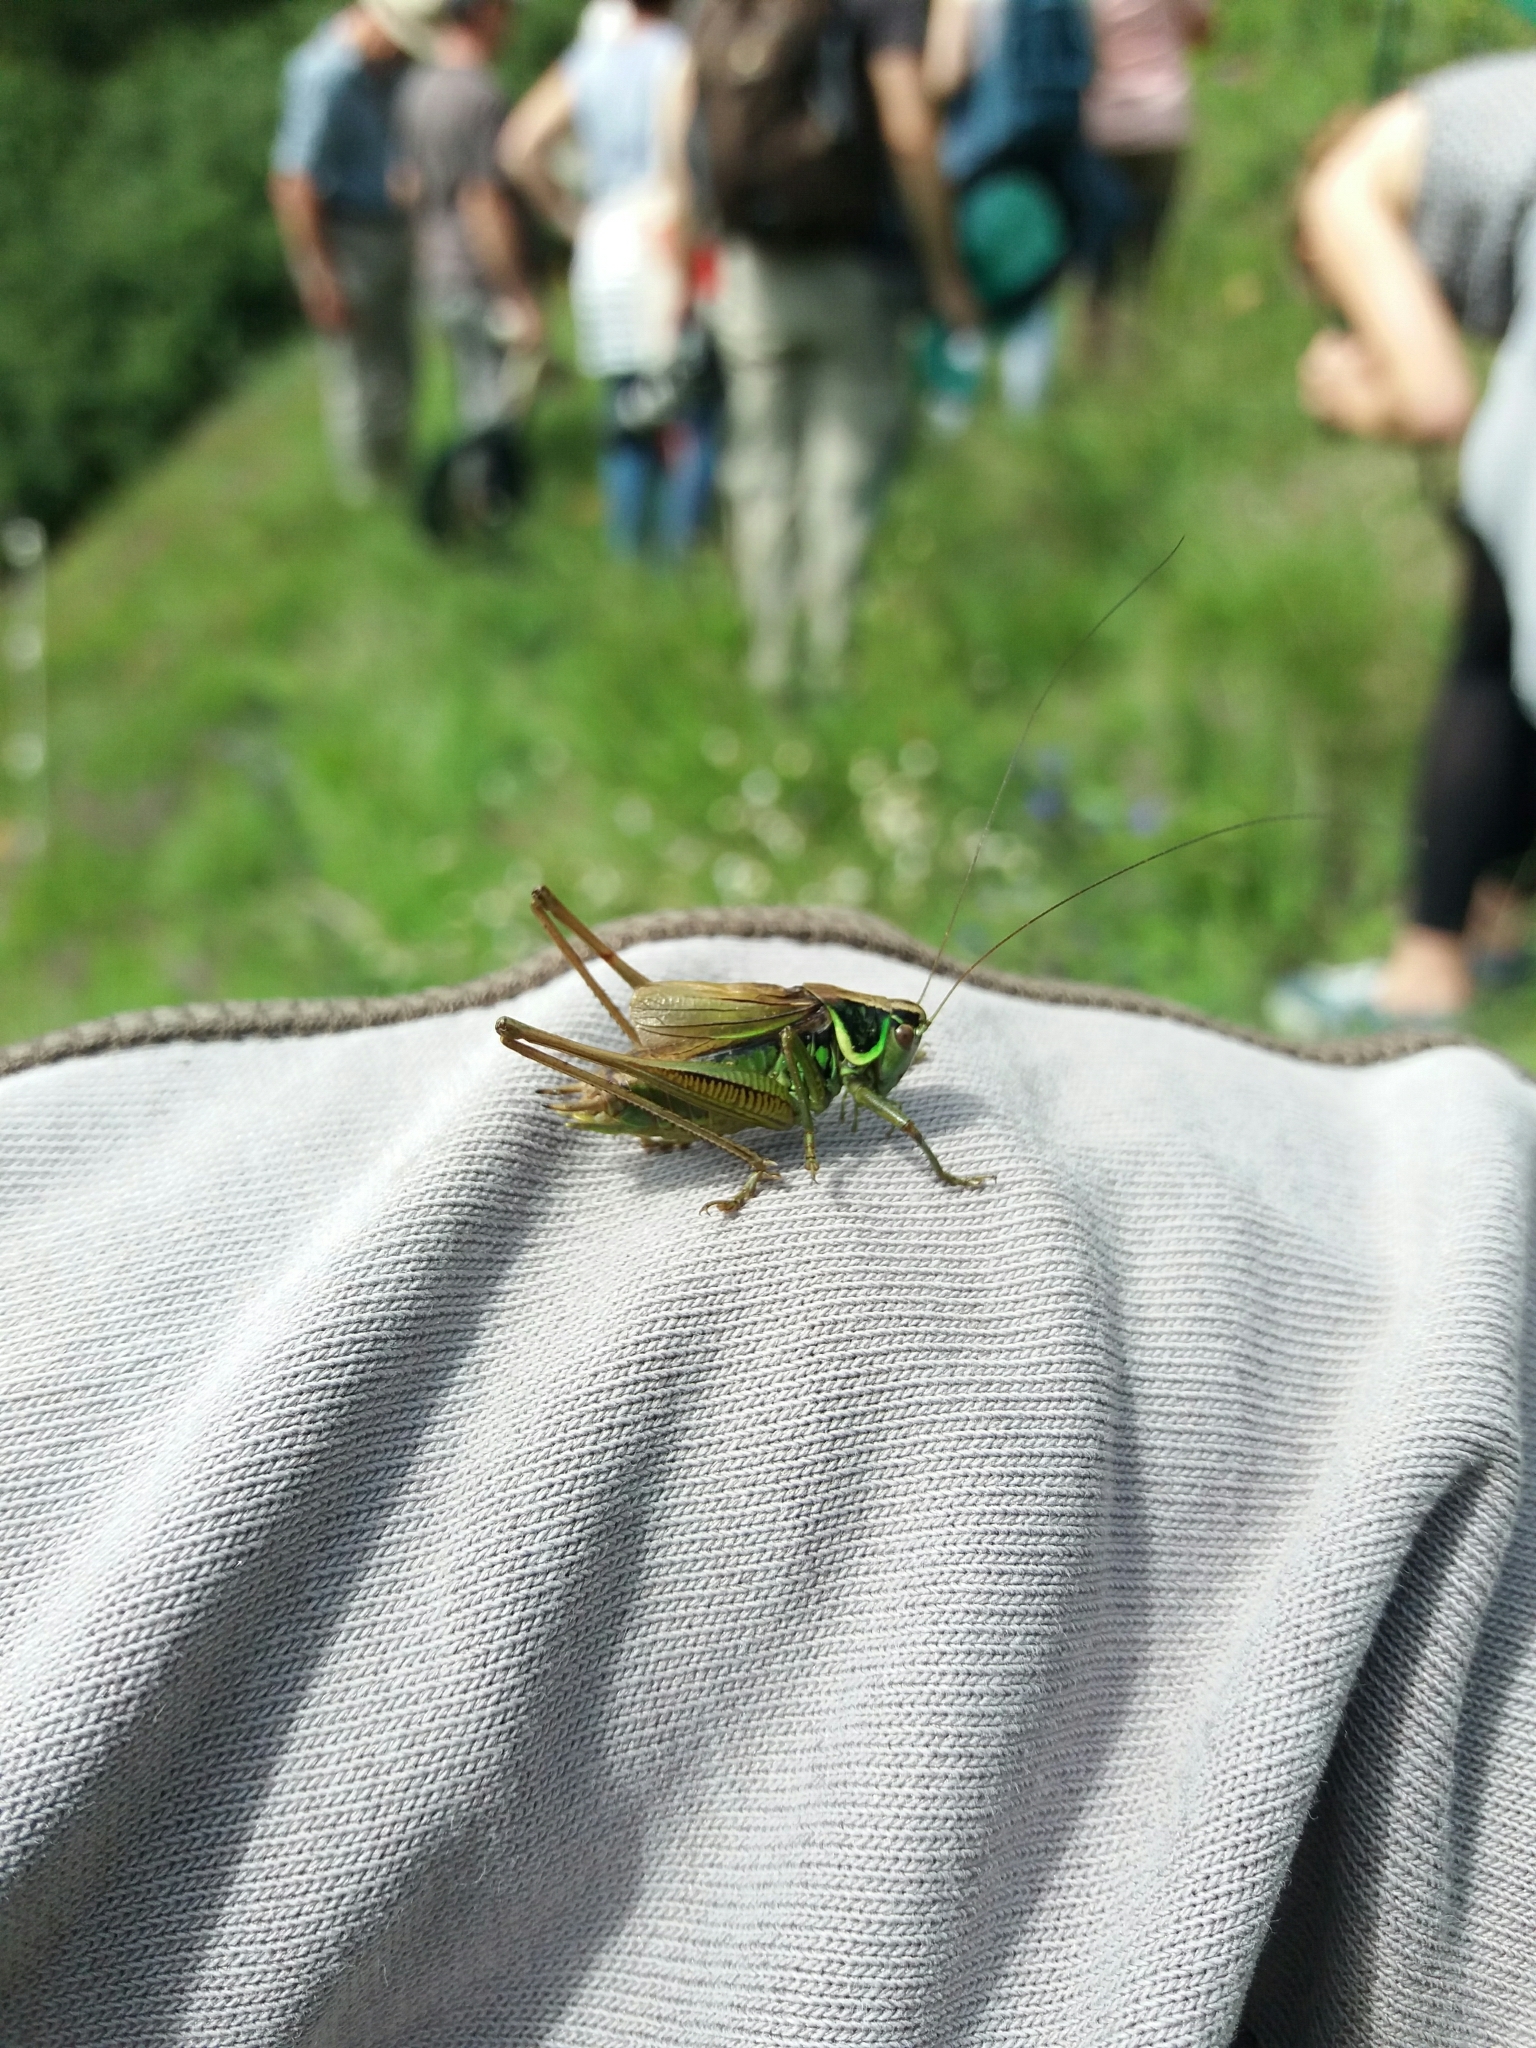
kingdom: Animalia
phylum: Arthropoda
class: Insecta
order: Orthoptera
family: Tettigoniidae
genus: Roeseliana
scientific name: Roeseliana roeselii
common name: Roesel's bush cricket
